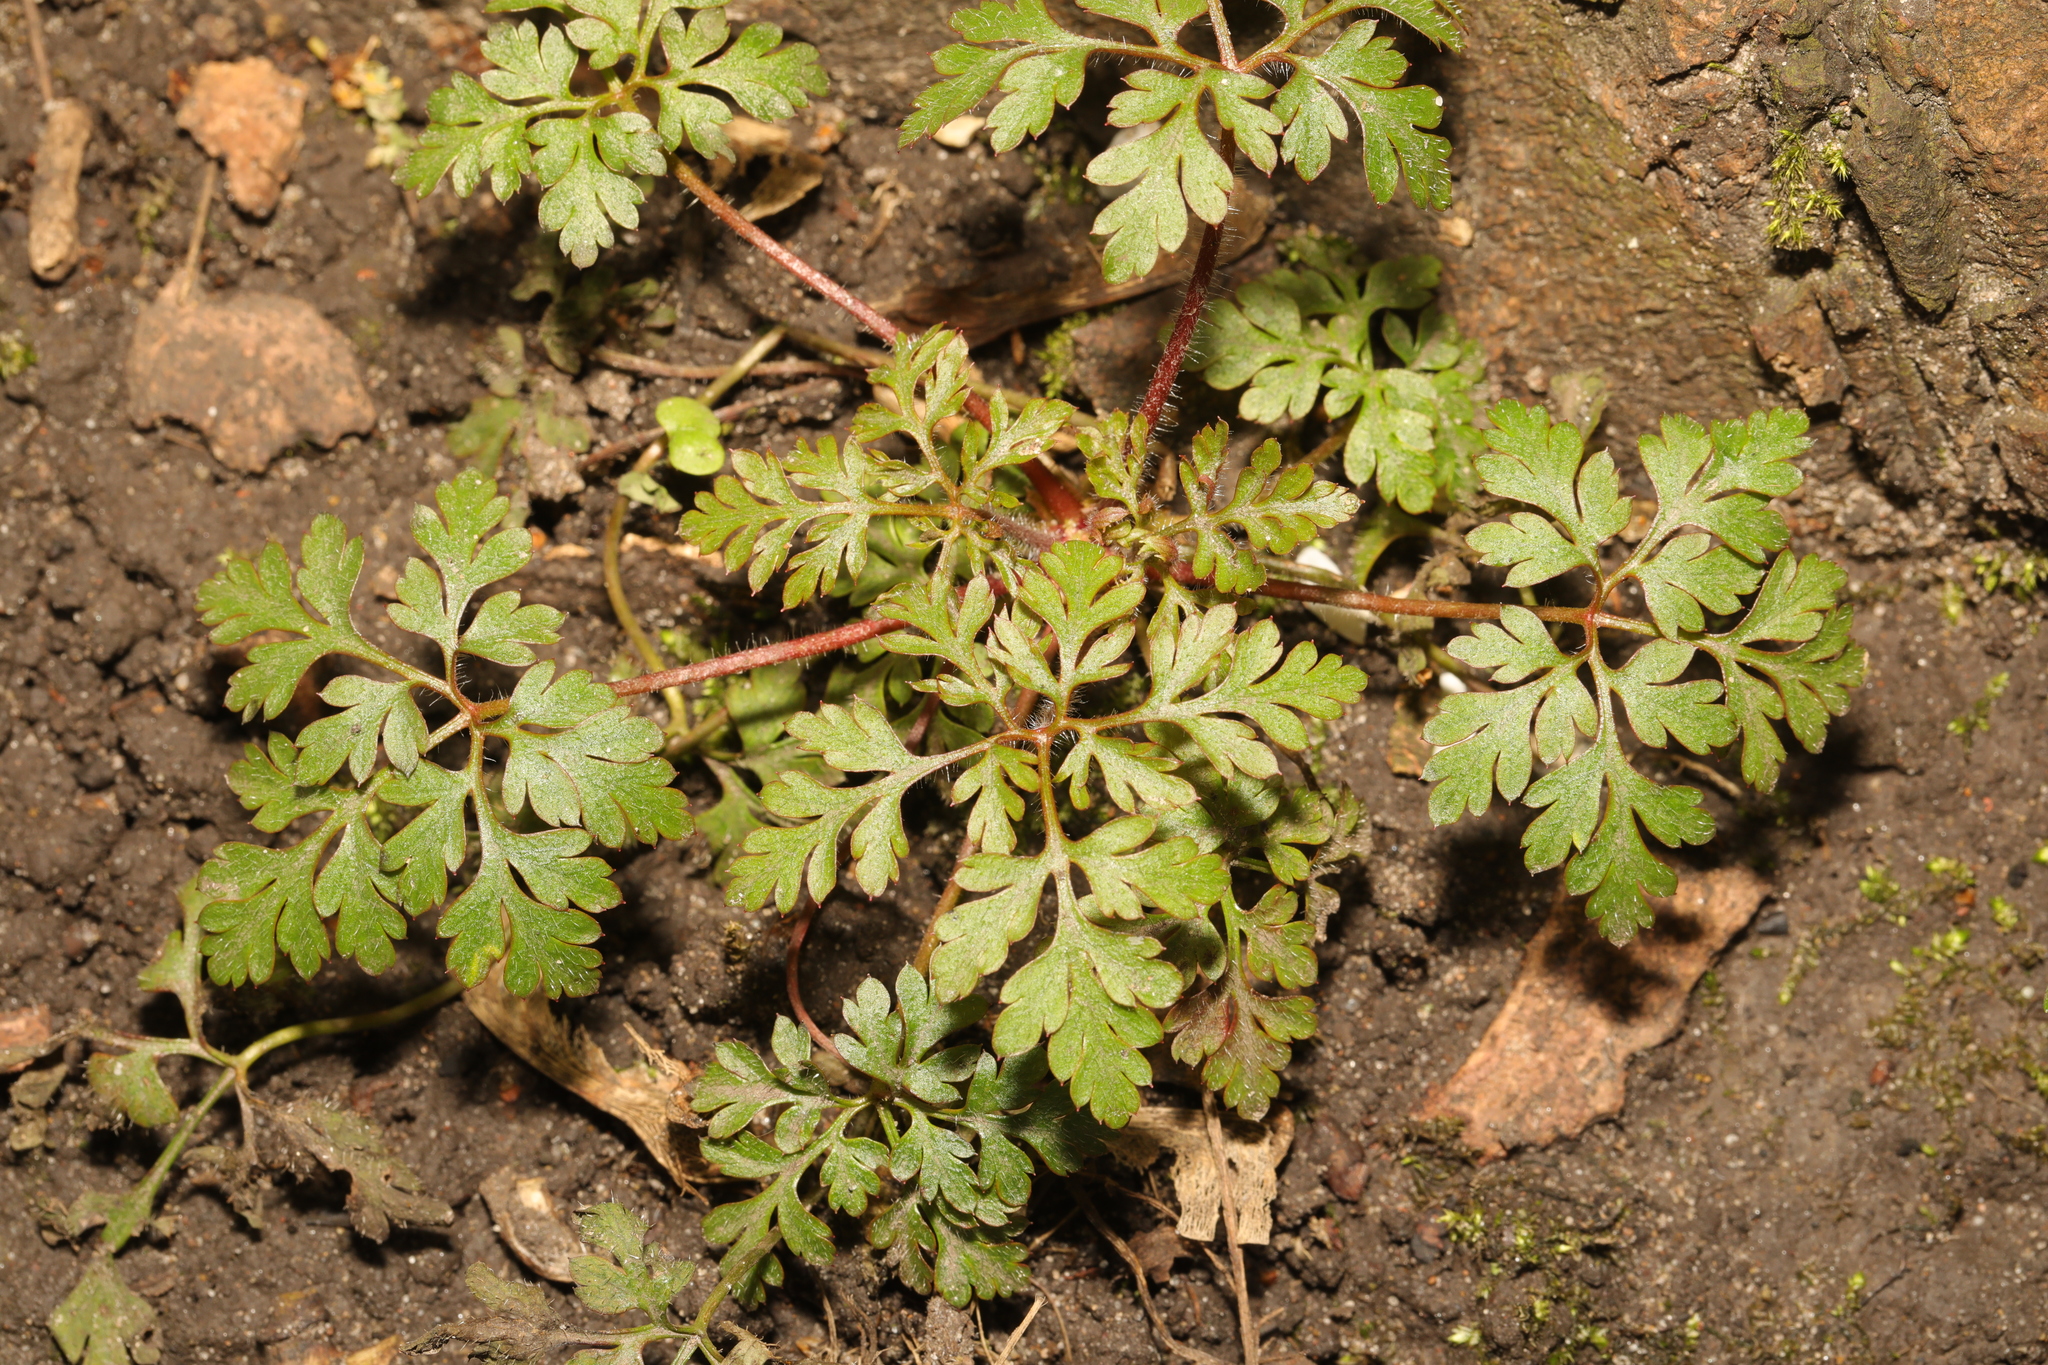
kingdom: Plantae
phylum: Tracheophyta
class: Magnoliopsida
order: Geraniales
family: Geraniaceae
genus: Geranium
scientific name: Geranium robertianum
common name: Herb-robert
